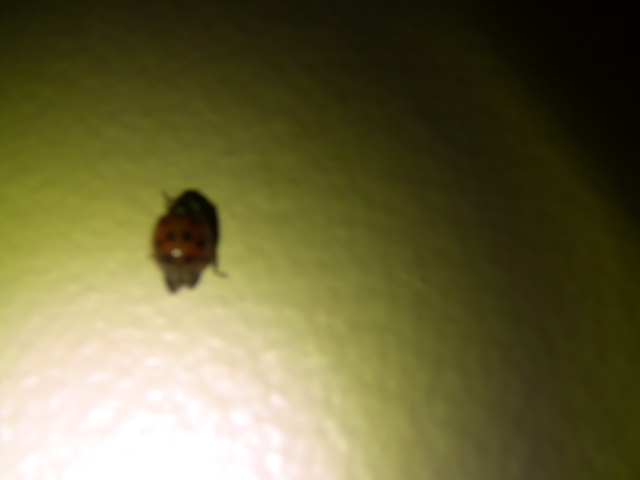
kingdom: Animalia
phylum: Arthropoda
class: Insecta
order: Coleoptera
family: Coccinellidae
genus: Harmonia
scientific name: Harmonia axyridis
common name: Harlequin ladybird
